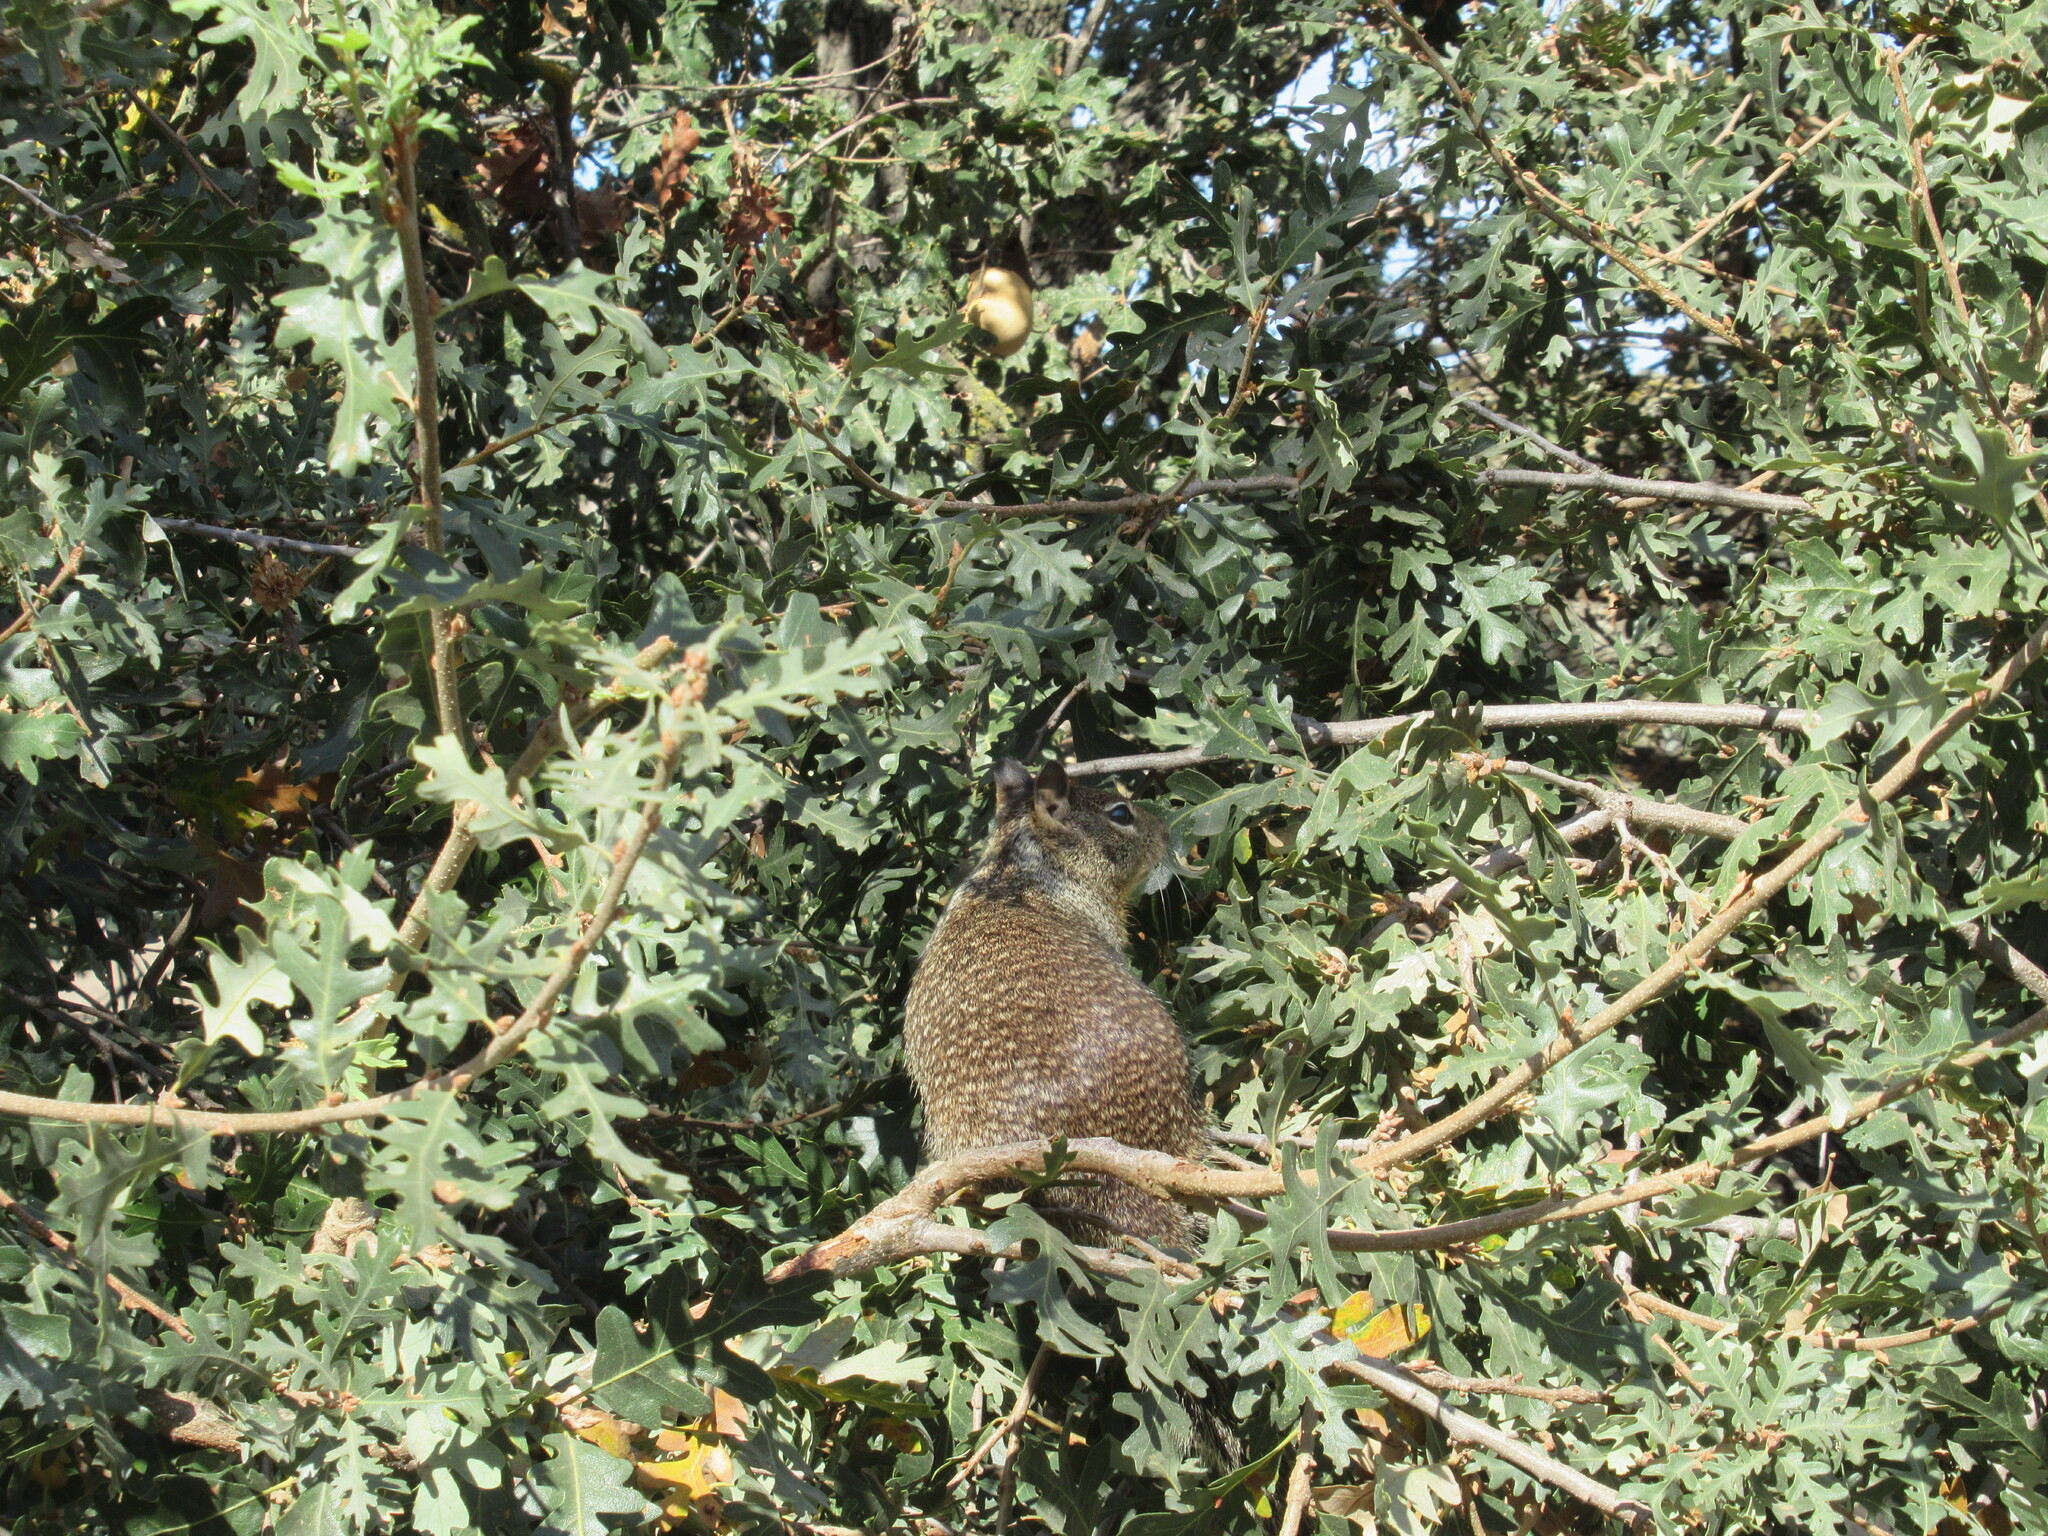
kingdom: Animalia
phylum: Chordata
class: Mammalia
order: Rodentia
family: Sciuridae
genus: Otospermophilus
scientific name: Otospermophilus beecheyi
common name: California ground squirrel
